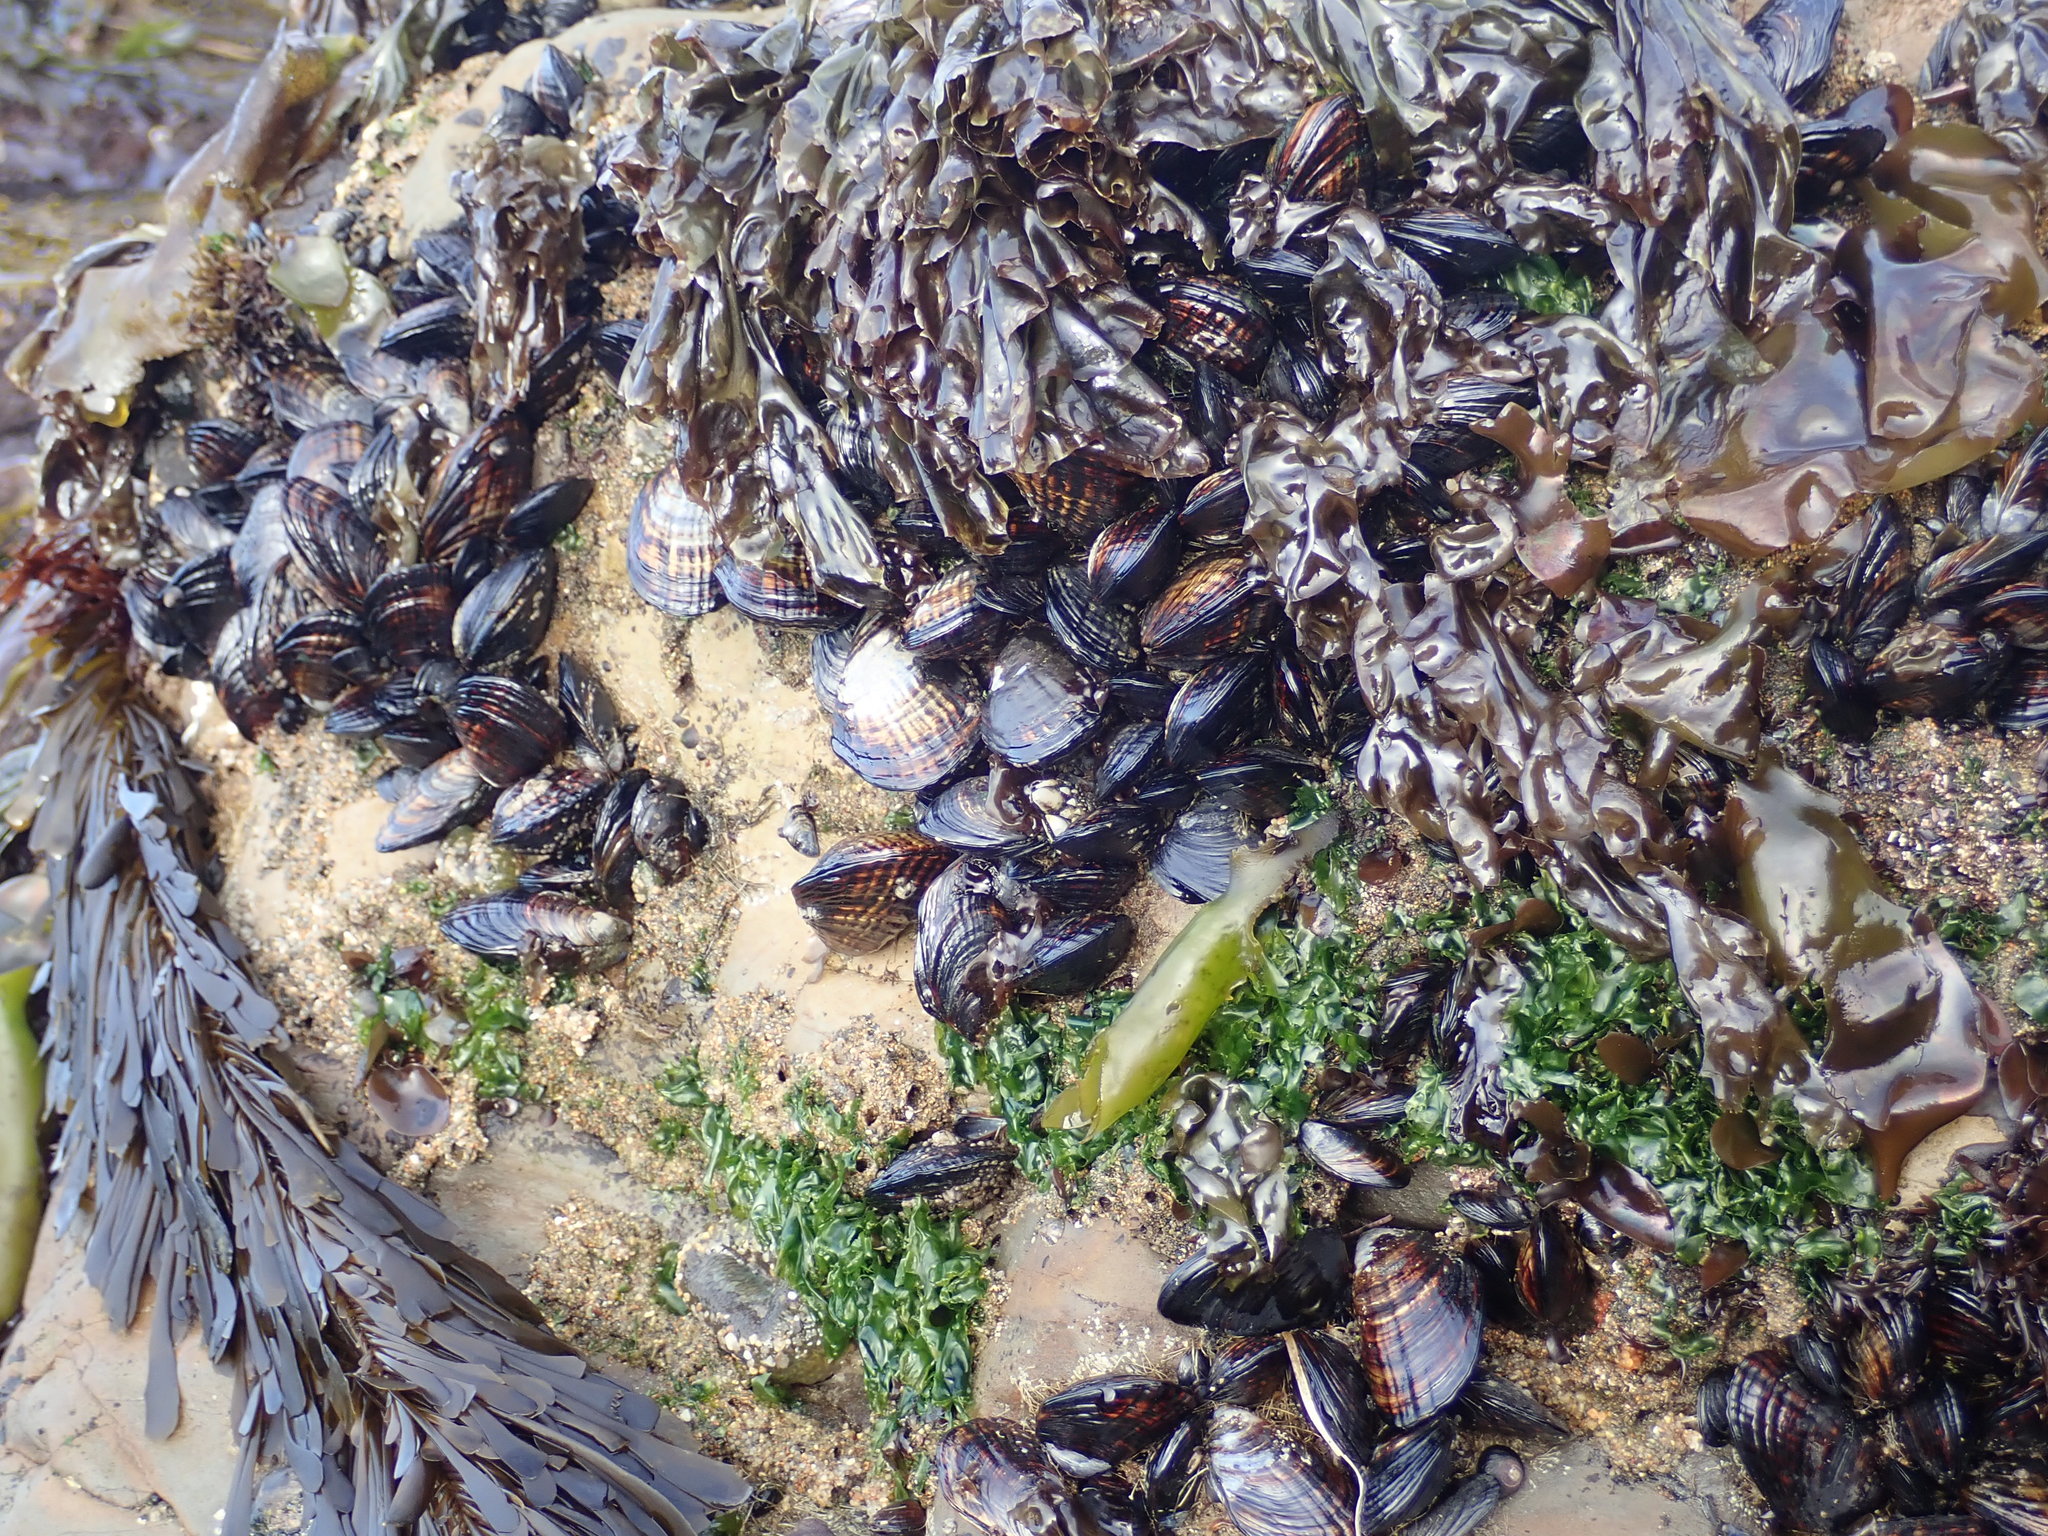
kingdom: Animalia
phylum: Mollusca
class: Bivalvia
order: Mytilida
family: Mytilidae
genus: Mytilus
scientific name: Mytilus californianus
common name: California mussel
